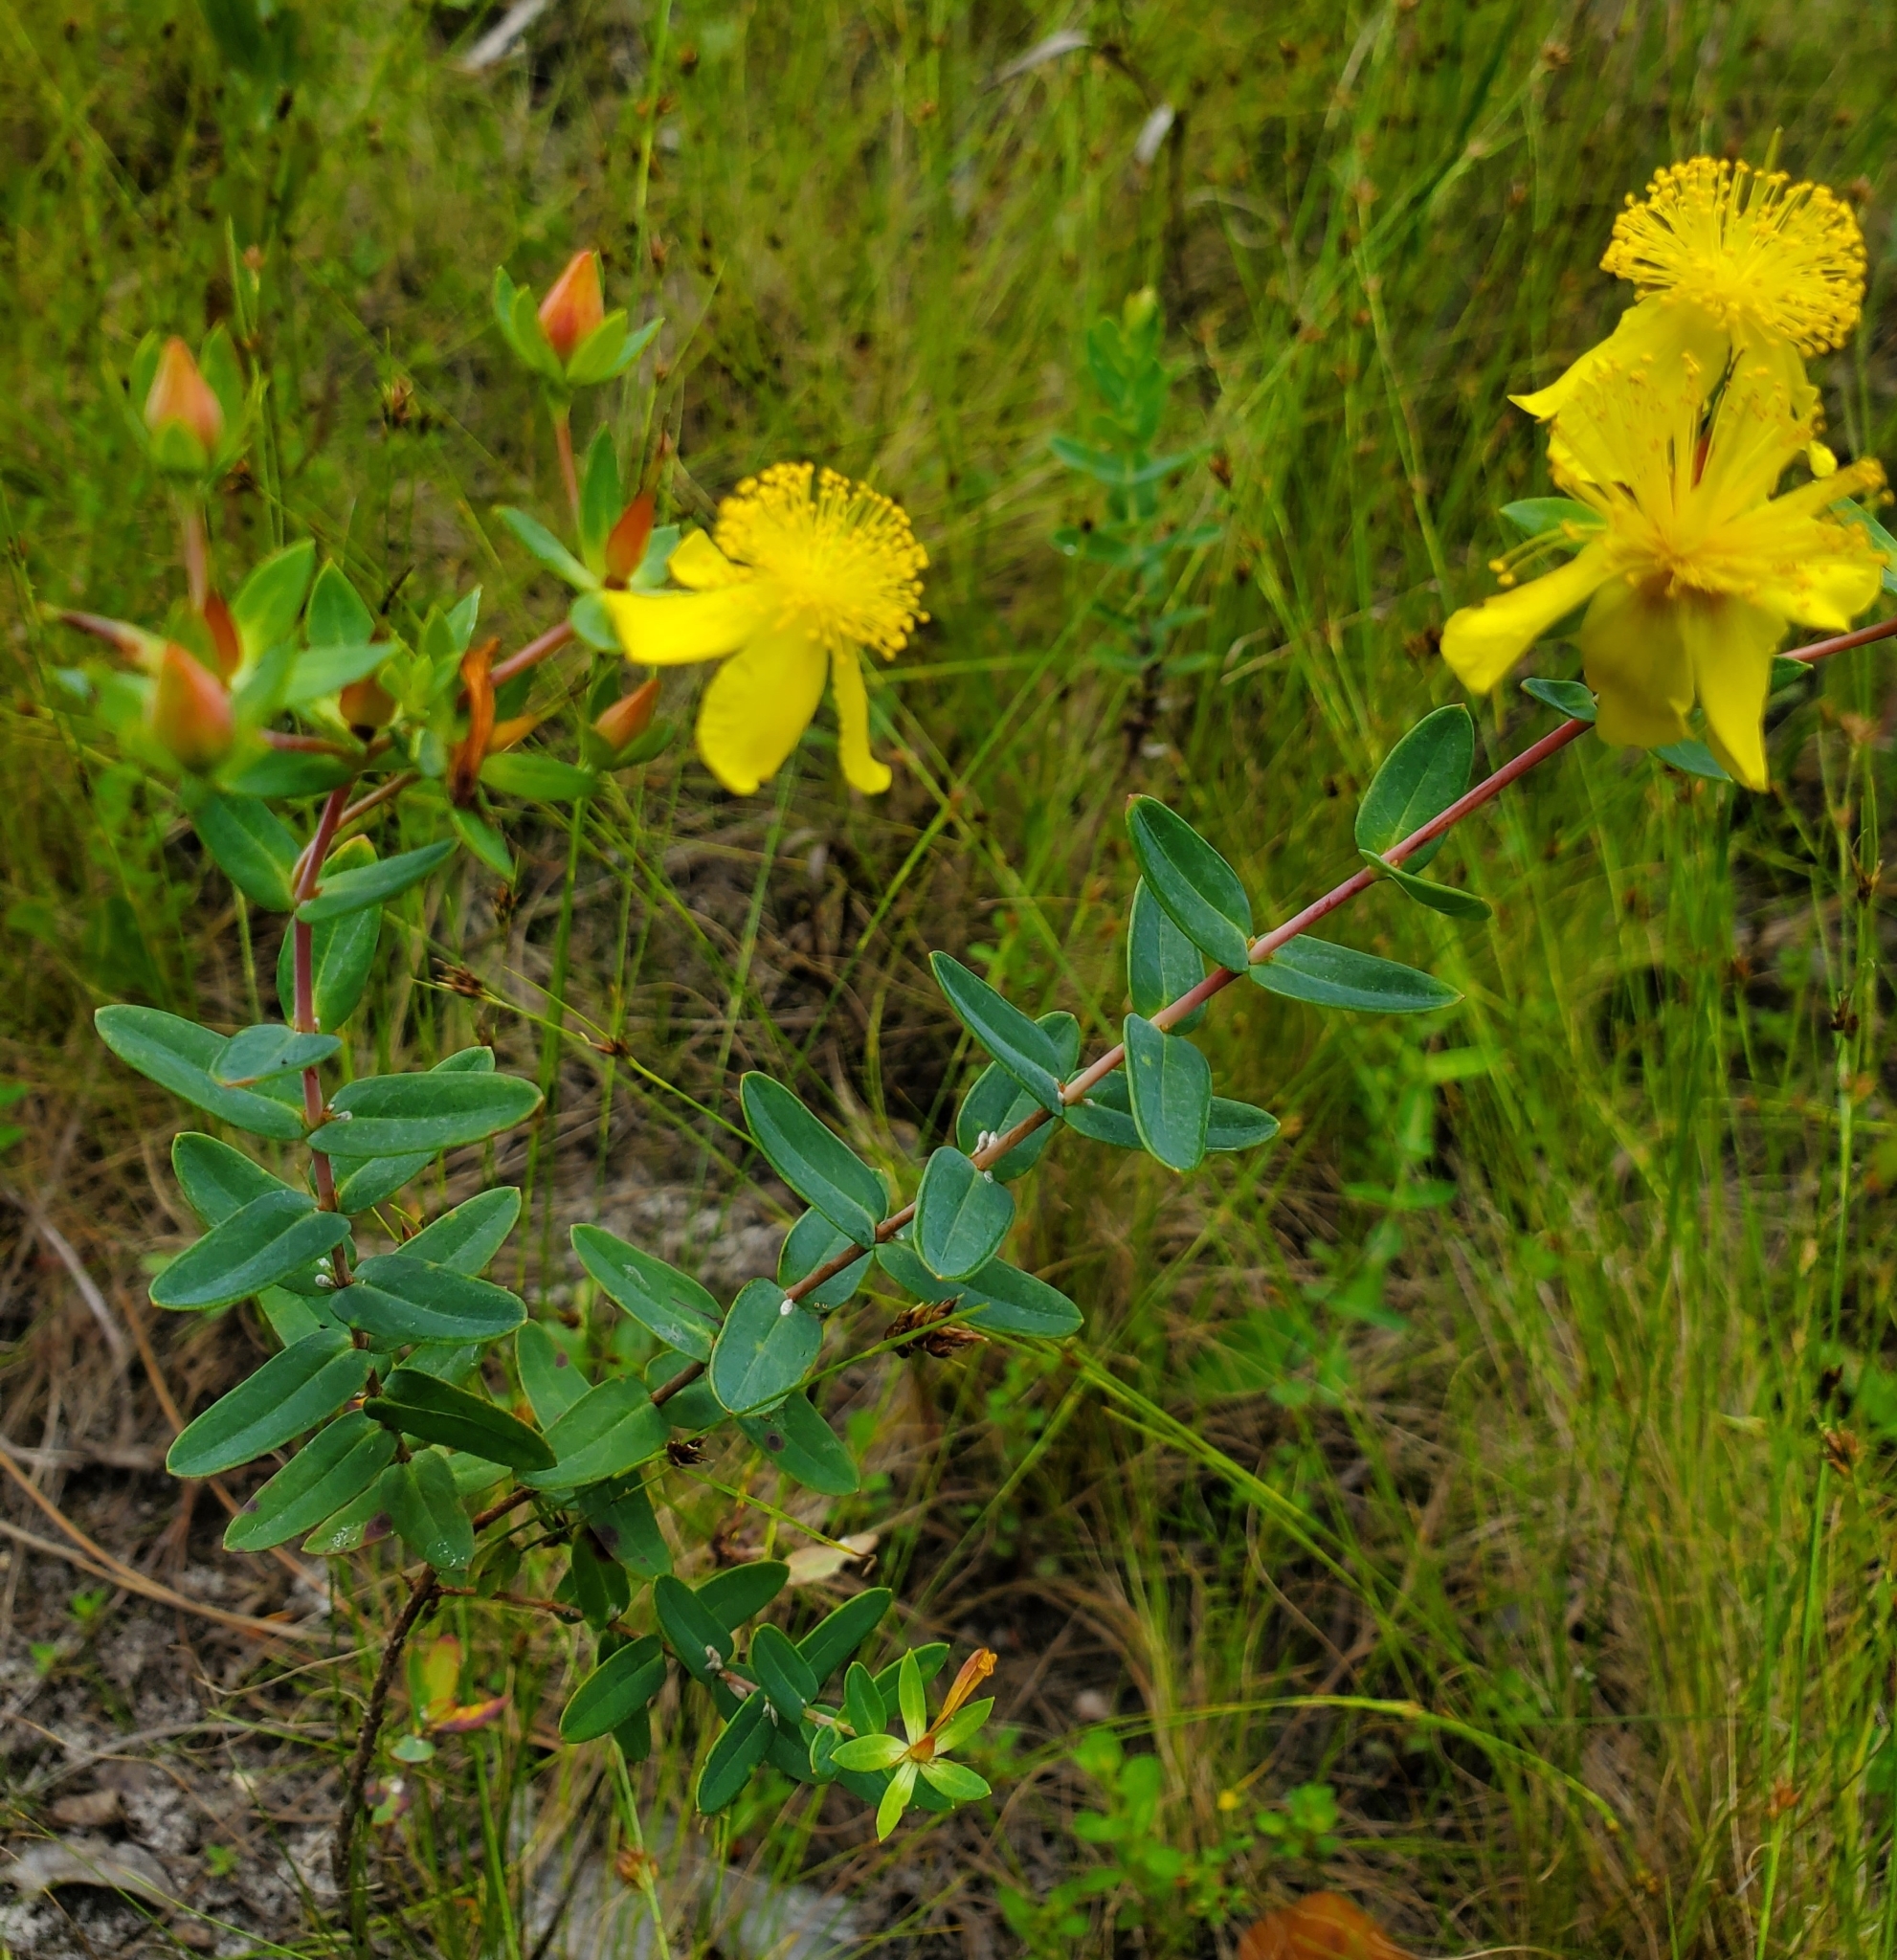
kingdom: Plantae
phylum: Tracheophyta
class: Magnoliopsida
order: Malpighiales
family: Hypericaceae
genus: Hypericum
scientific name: Hypericum myrtifolium
